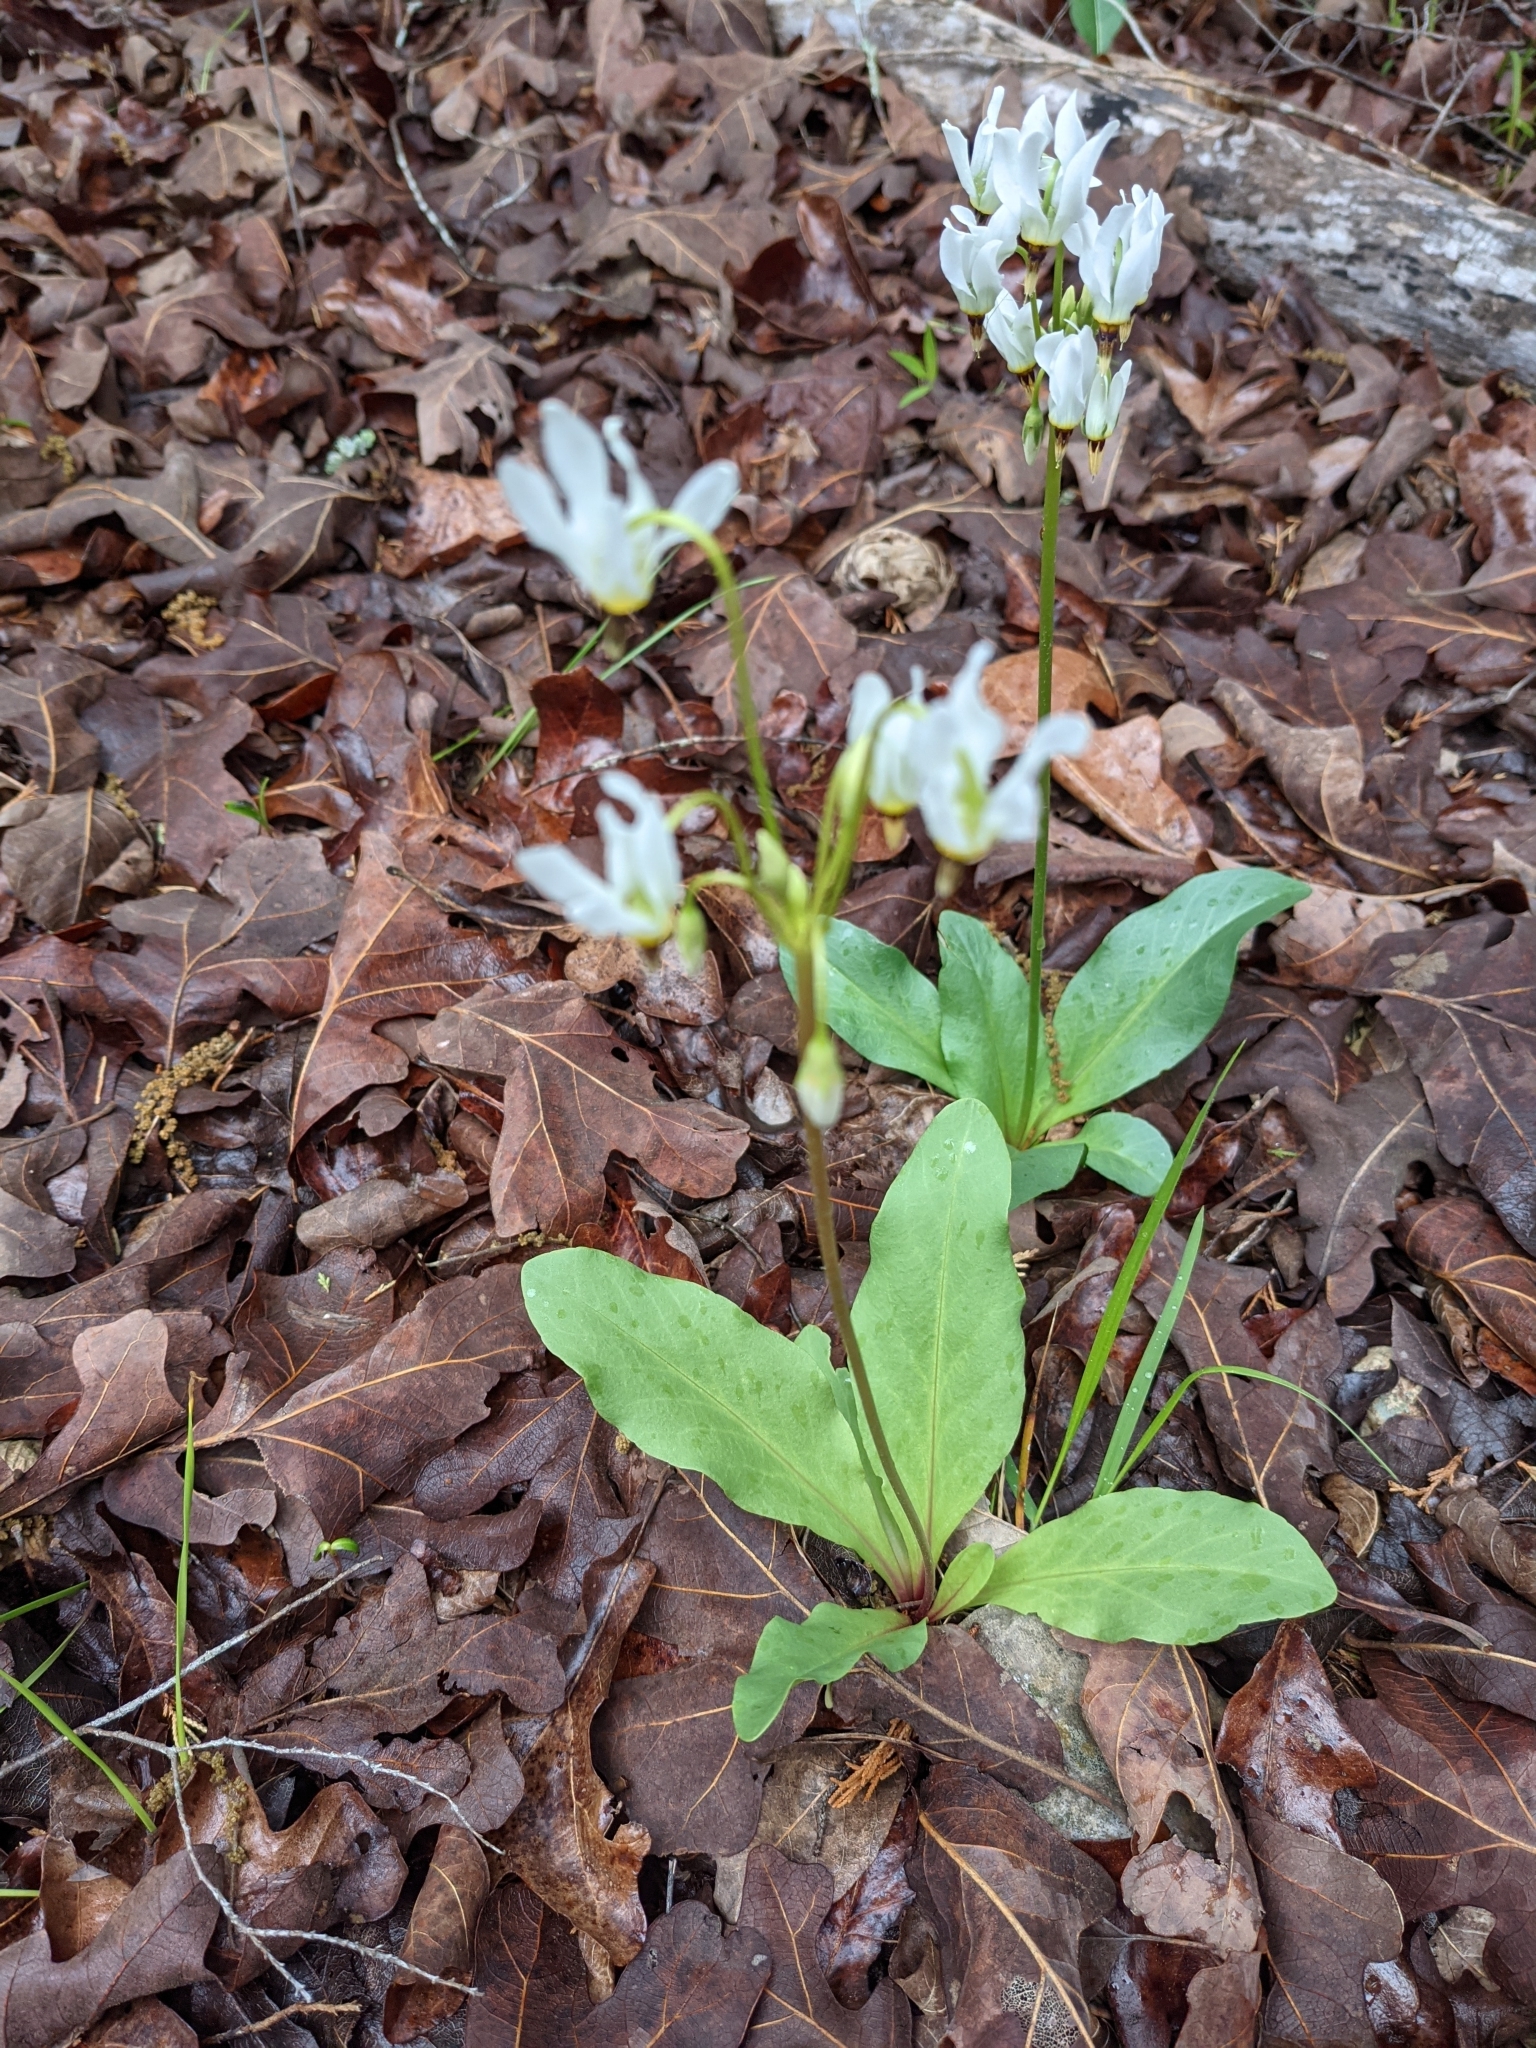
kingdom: Plantae
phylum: Tracheophyta
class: Magnoliopsida
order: Ericales
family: Primulaceae
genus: Dodecatheon
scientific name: Dodecatheon meadia
